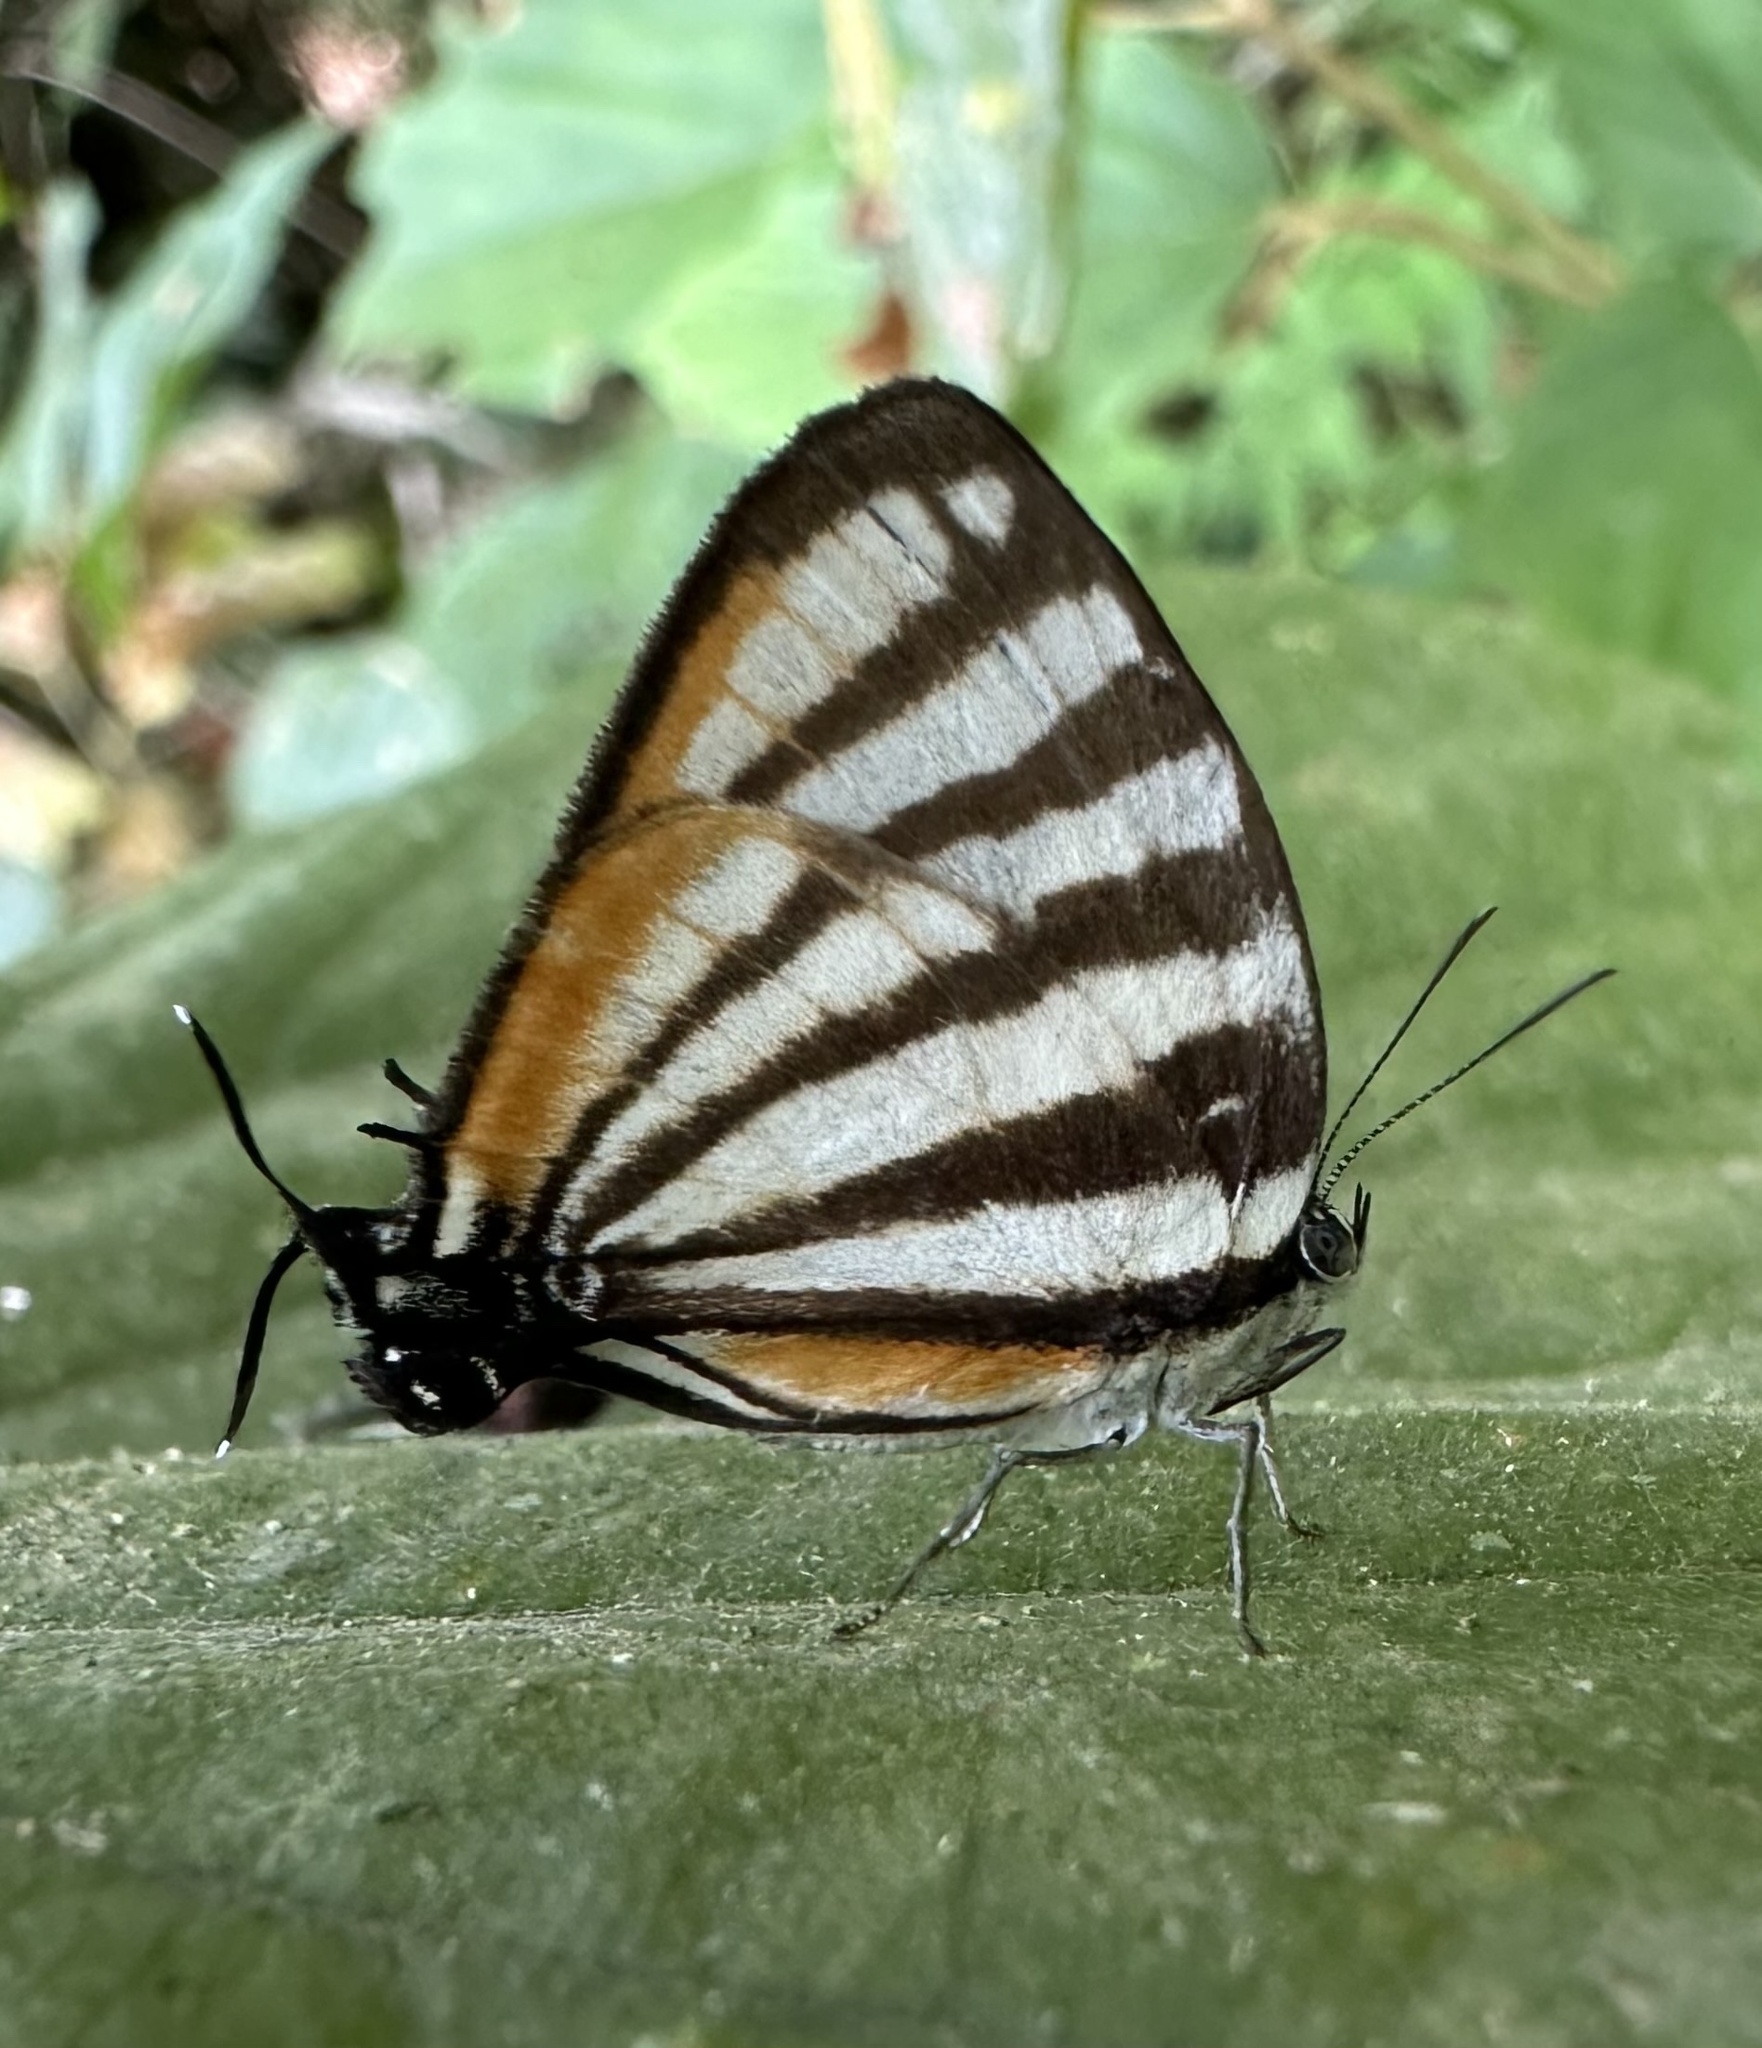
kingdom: Animalia
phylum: Arthropoda
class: Insecta
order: Lepidoptera
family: Lycaenidae
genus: Arawacus
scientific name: Arawacus lincoides
